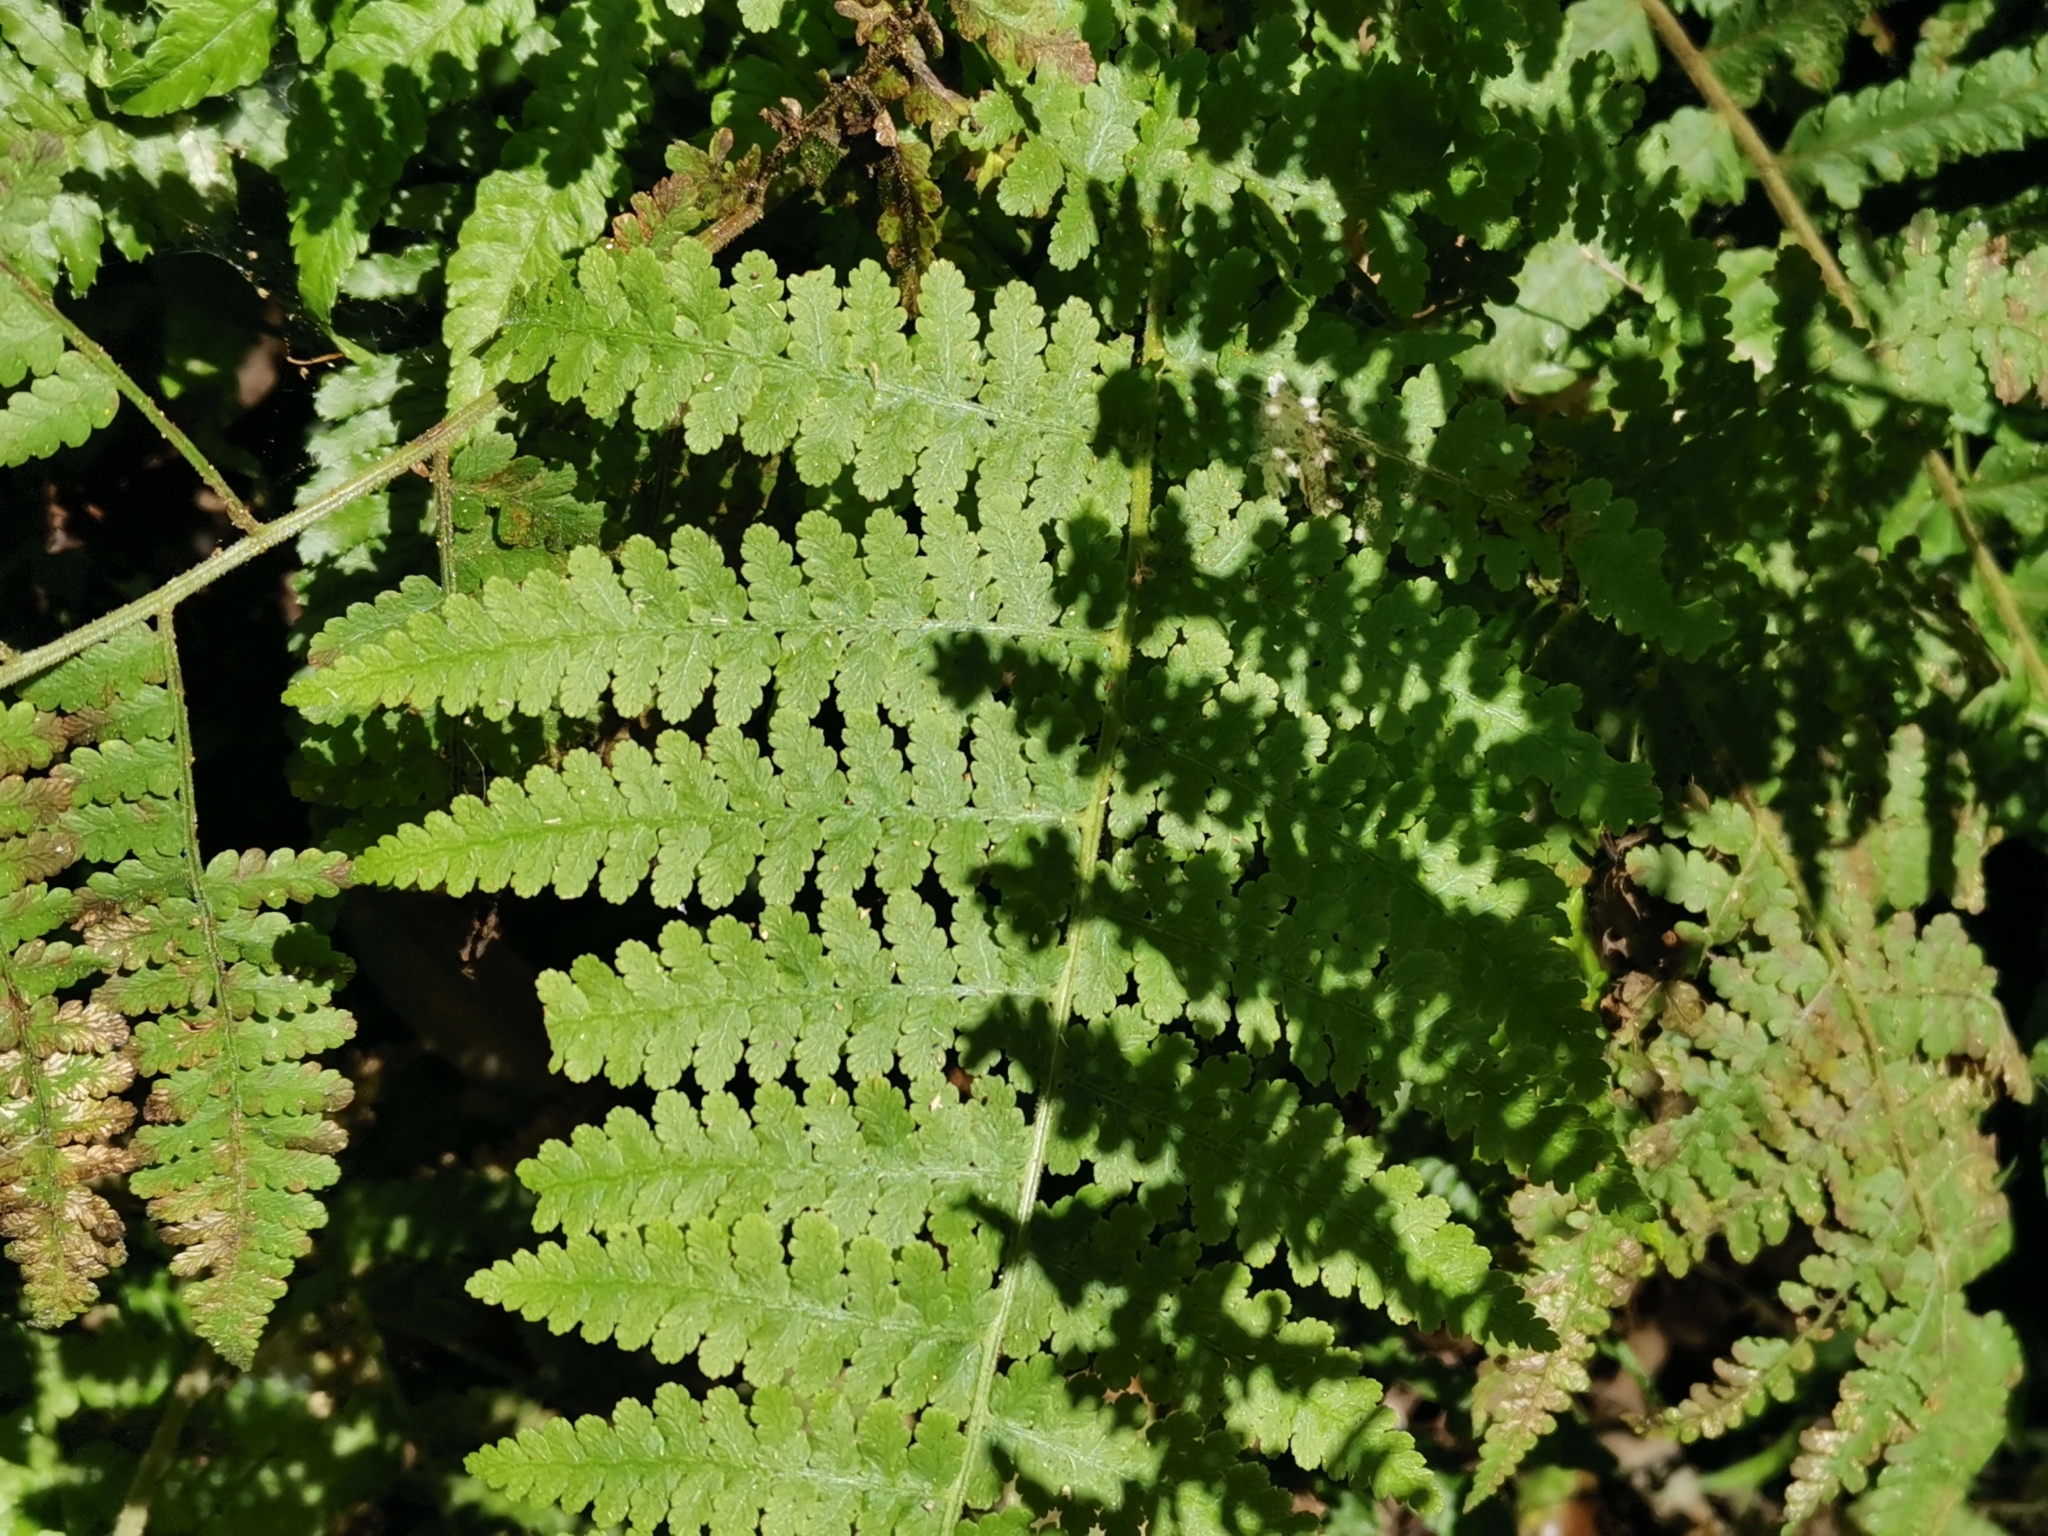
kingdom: Plantae
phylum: Tracheophyta
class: Polypodiopsida
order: Polypodiales
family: Dennstaedtiaceae
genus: Hypolepis
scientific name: Hypolepis punctata
